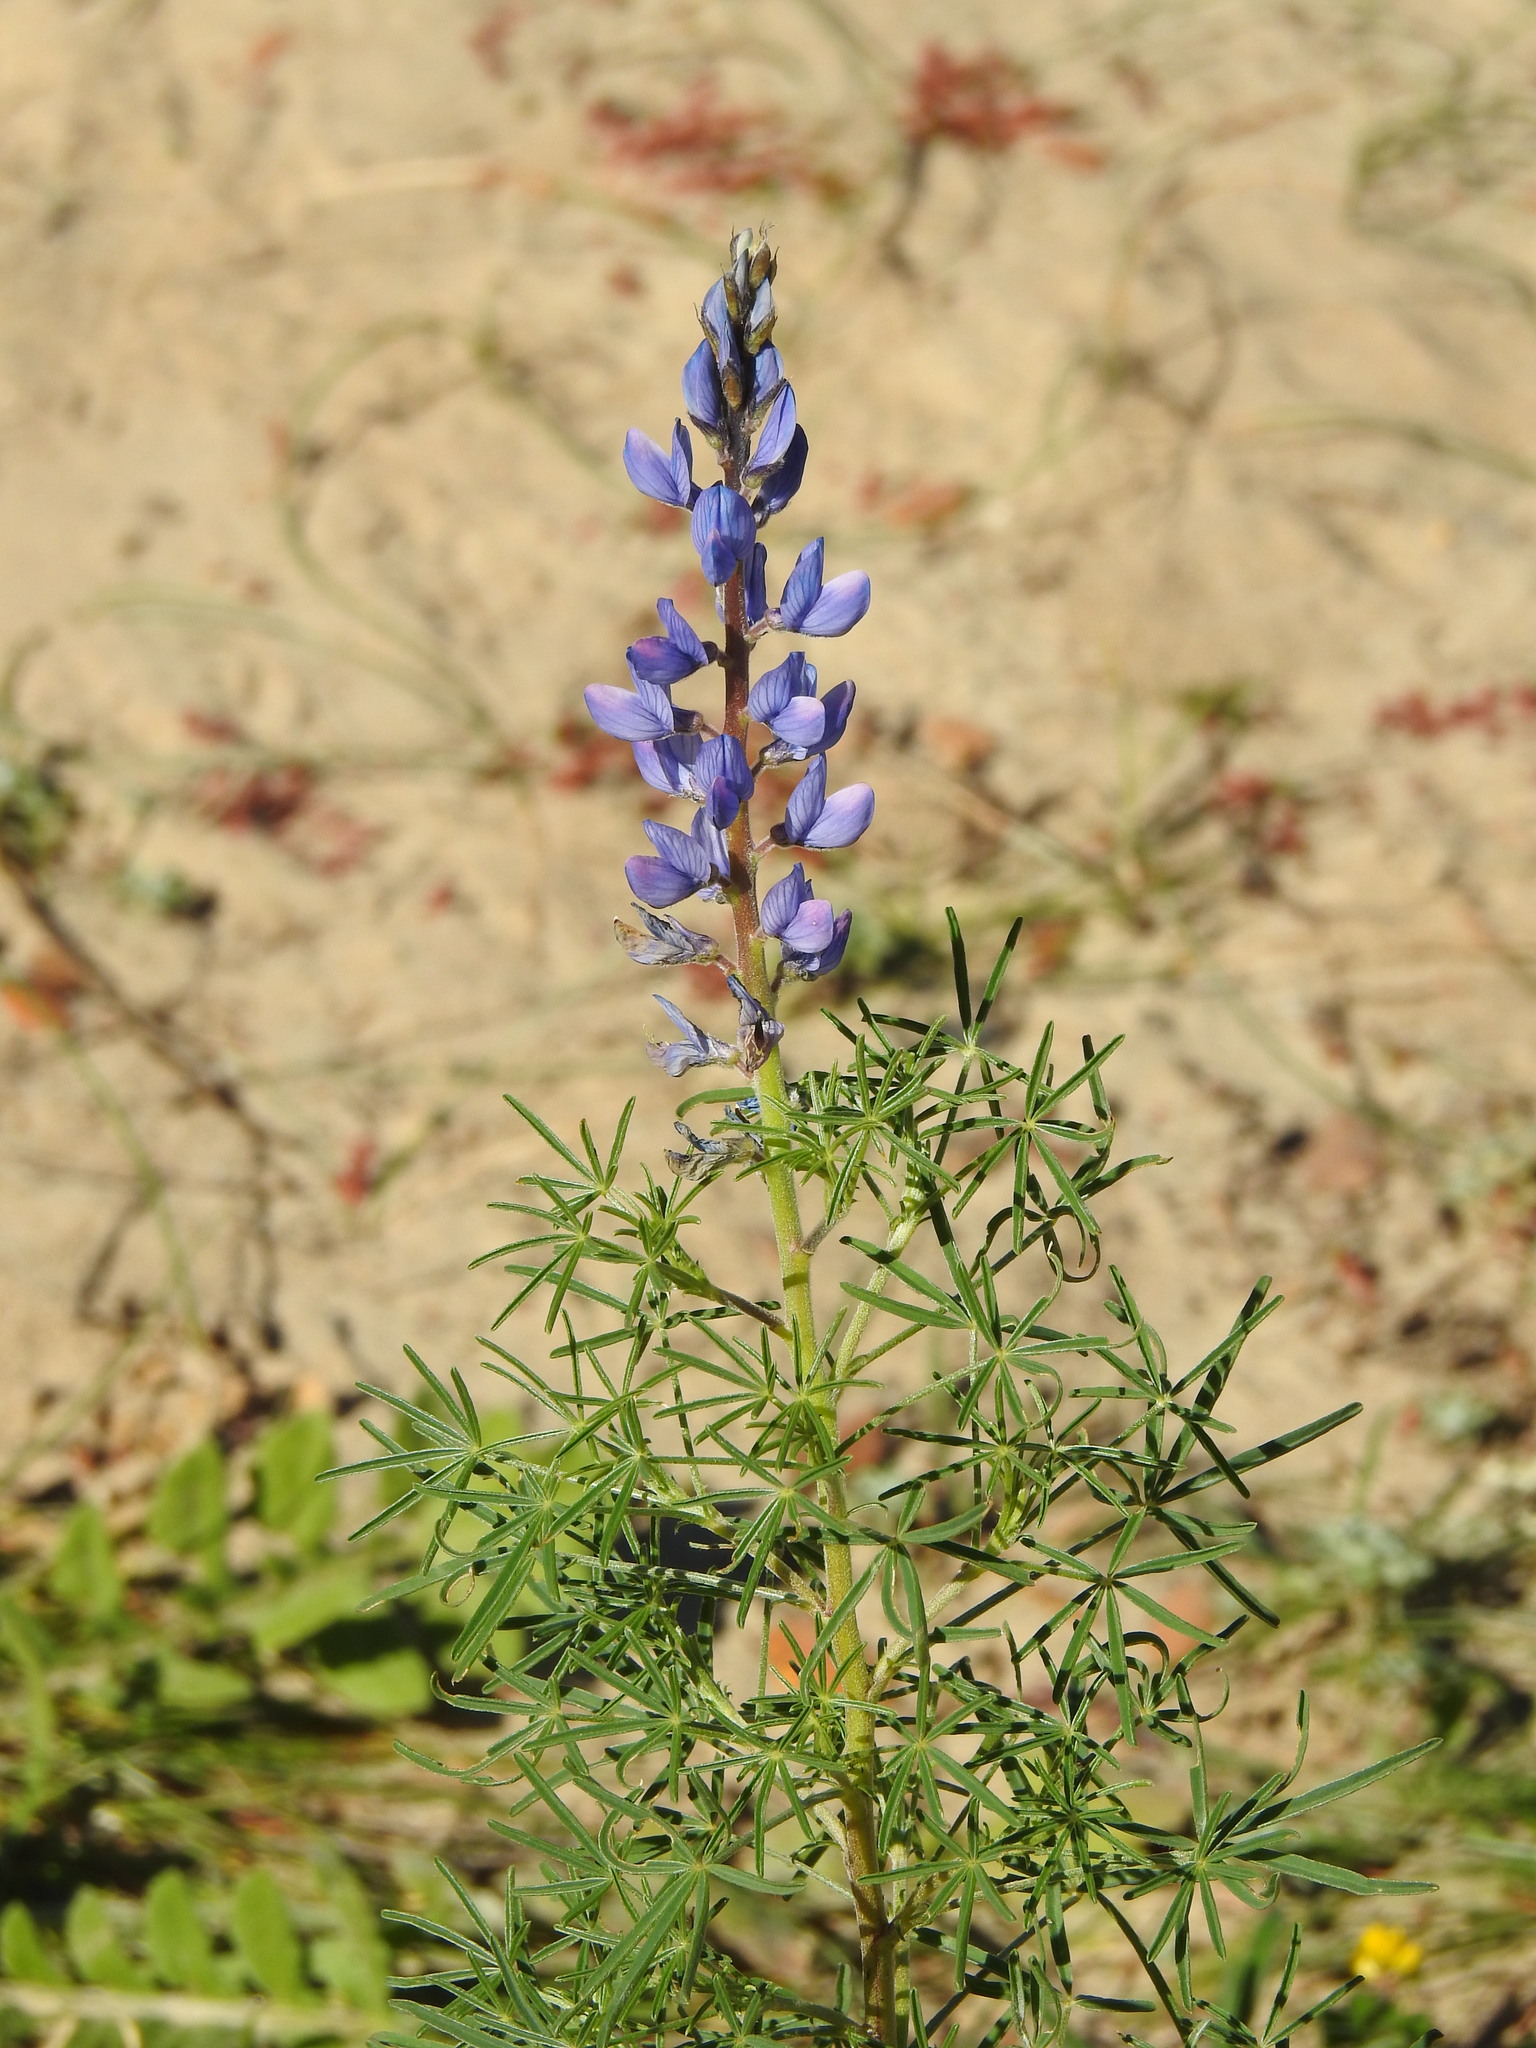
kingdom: Plantae
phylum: Tracheophyta
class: Magnoliopsida
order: Fabales
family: Fabaceae
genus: Lupinus
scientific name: Lupinus angustifolius
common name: Narrow-leaved lupin
